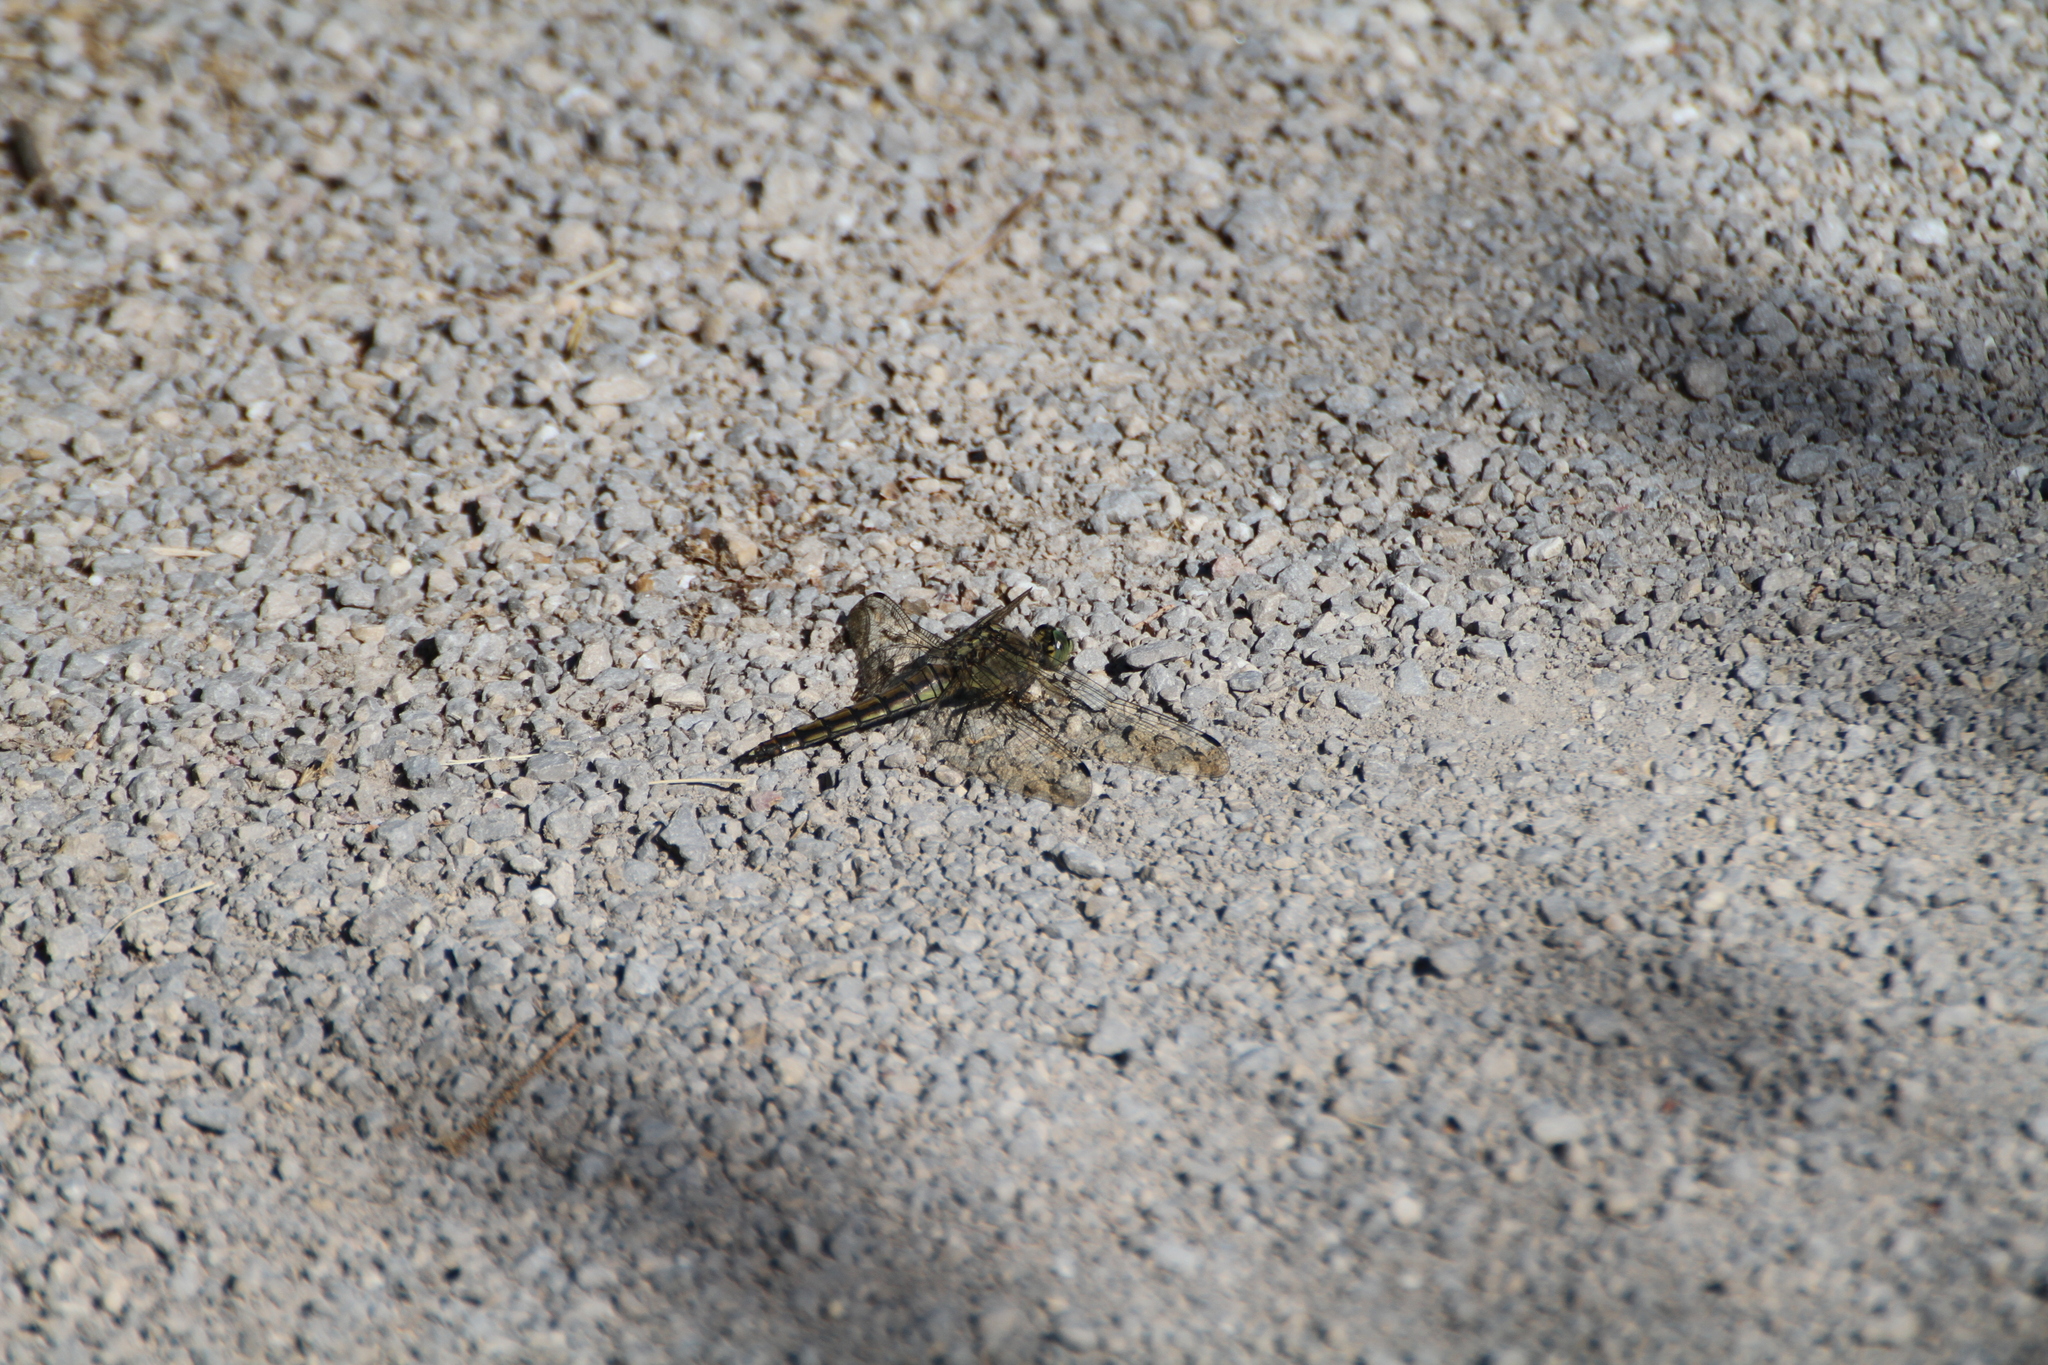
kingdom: Animalia
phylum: Arthropoda
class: Insecta
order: Odonata
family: Libellulidae
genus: Orthetrum
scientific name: Orthetrum cancellatum
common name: Black-tailed skimmer
